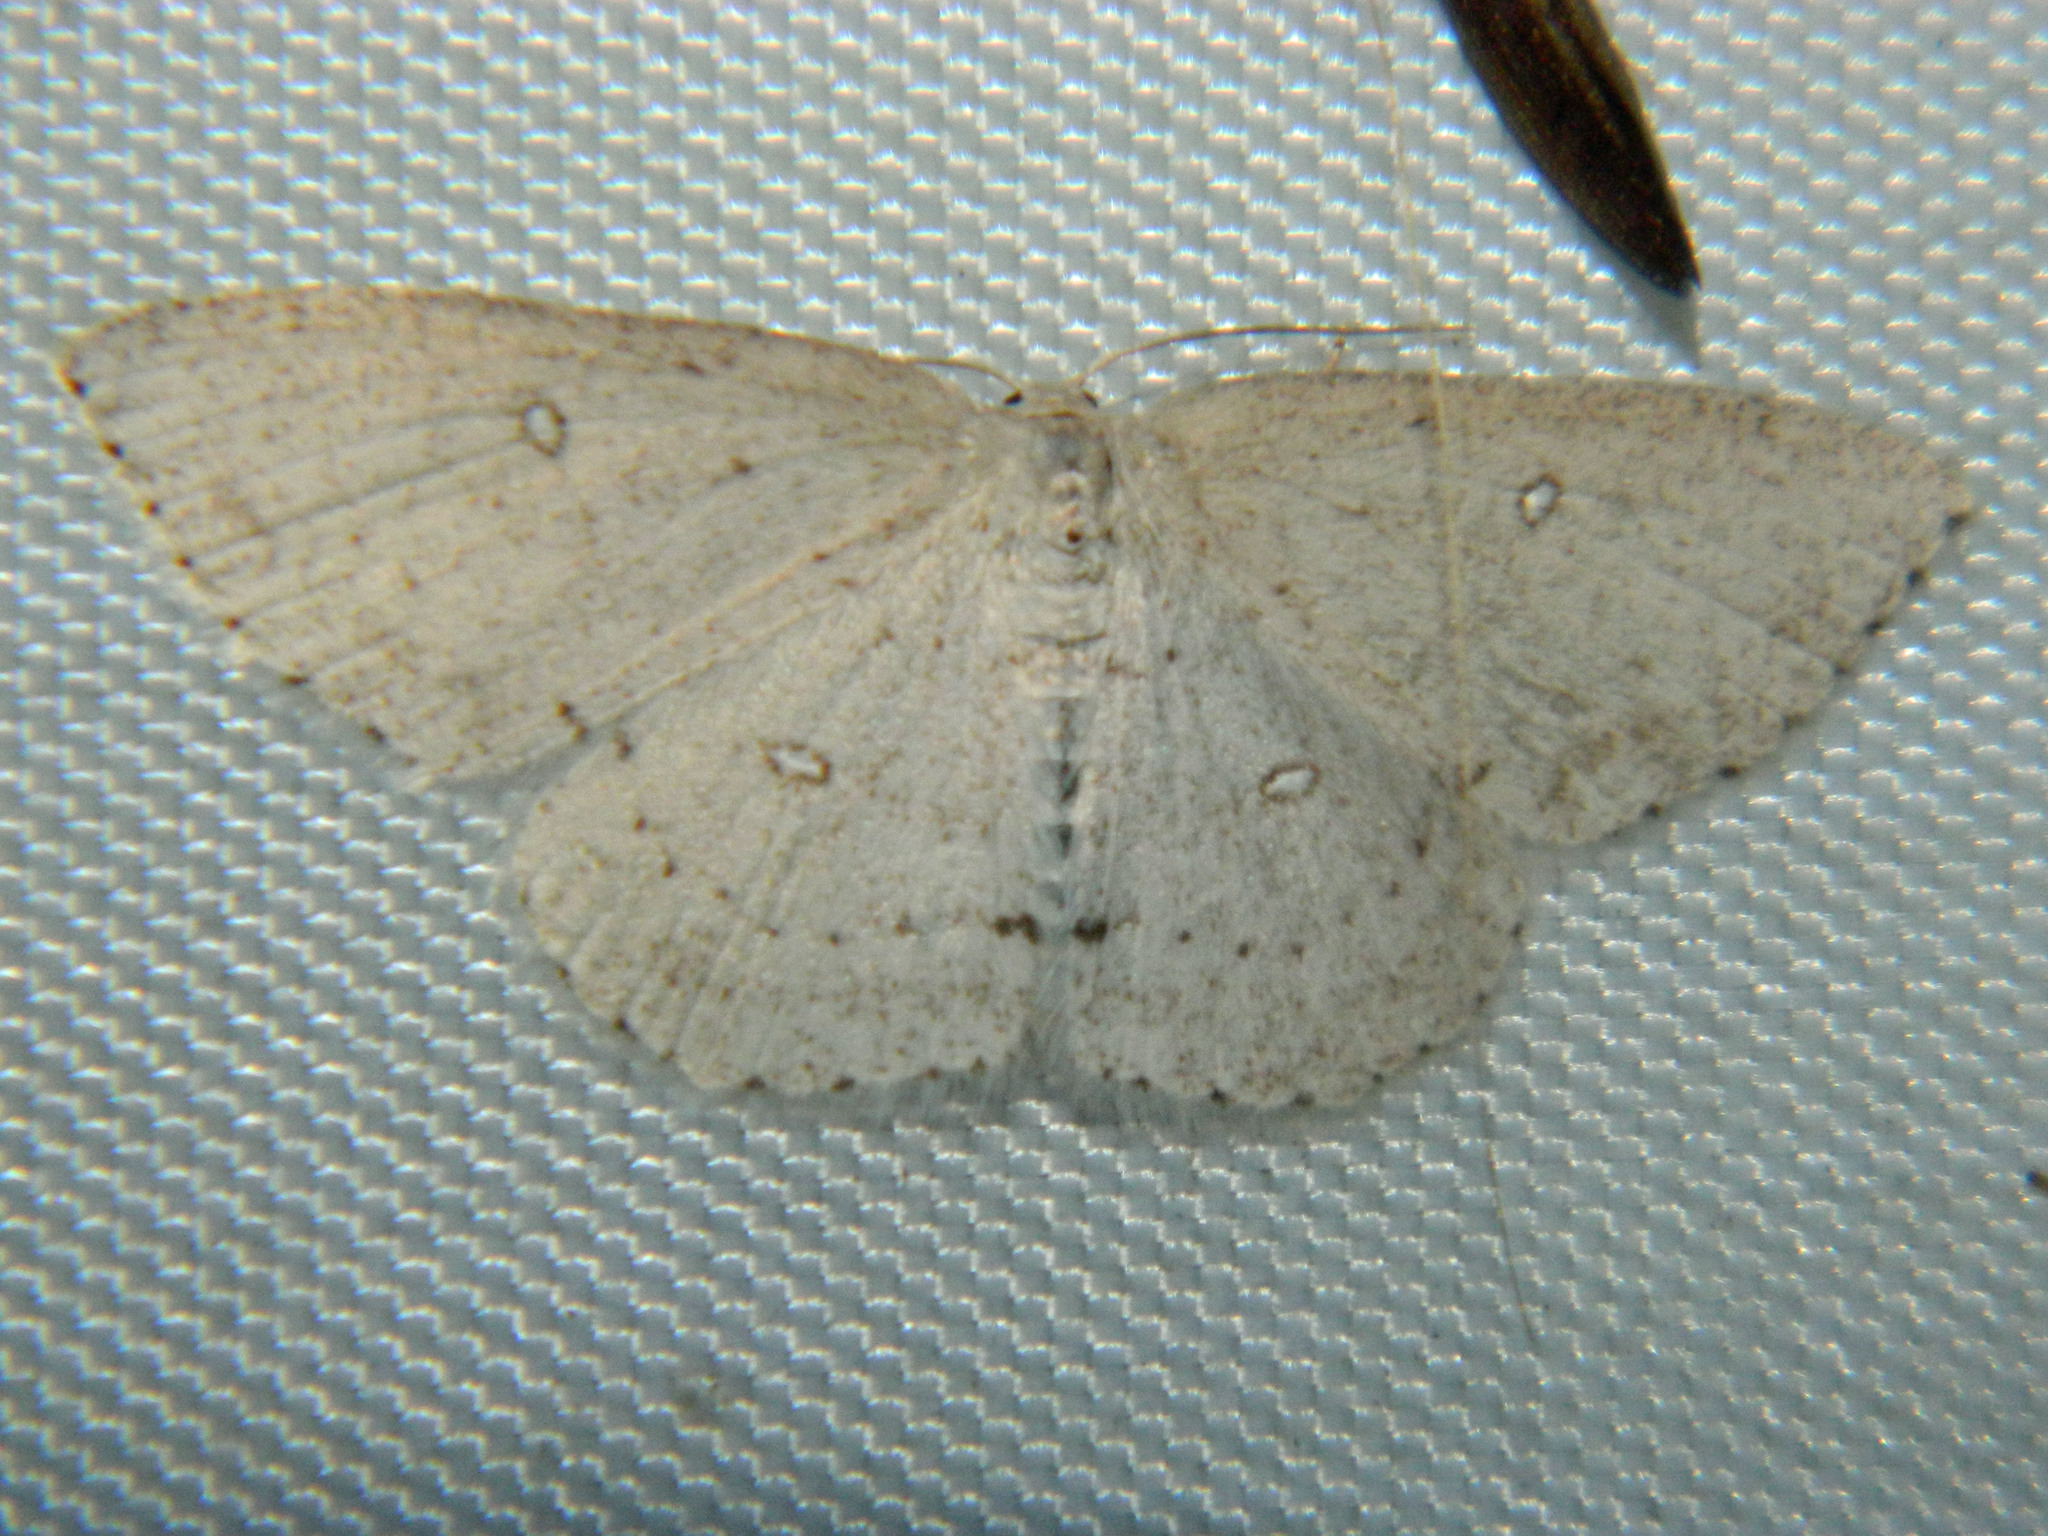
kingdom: Animalia
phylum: Arthropoda
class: Insecta
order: Lepidoptera
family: Geometridae
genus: Cyclophora
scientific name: Cyclophora pendulinaria
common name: Sweet fern geometer
